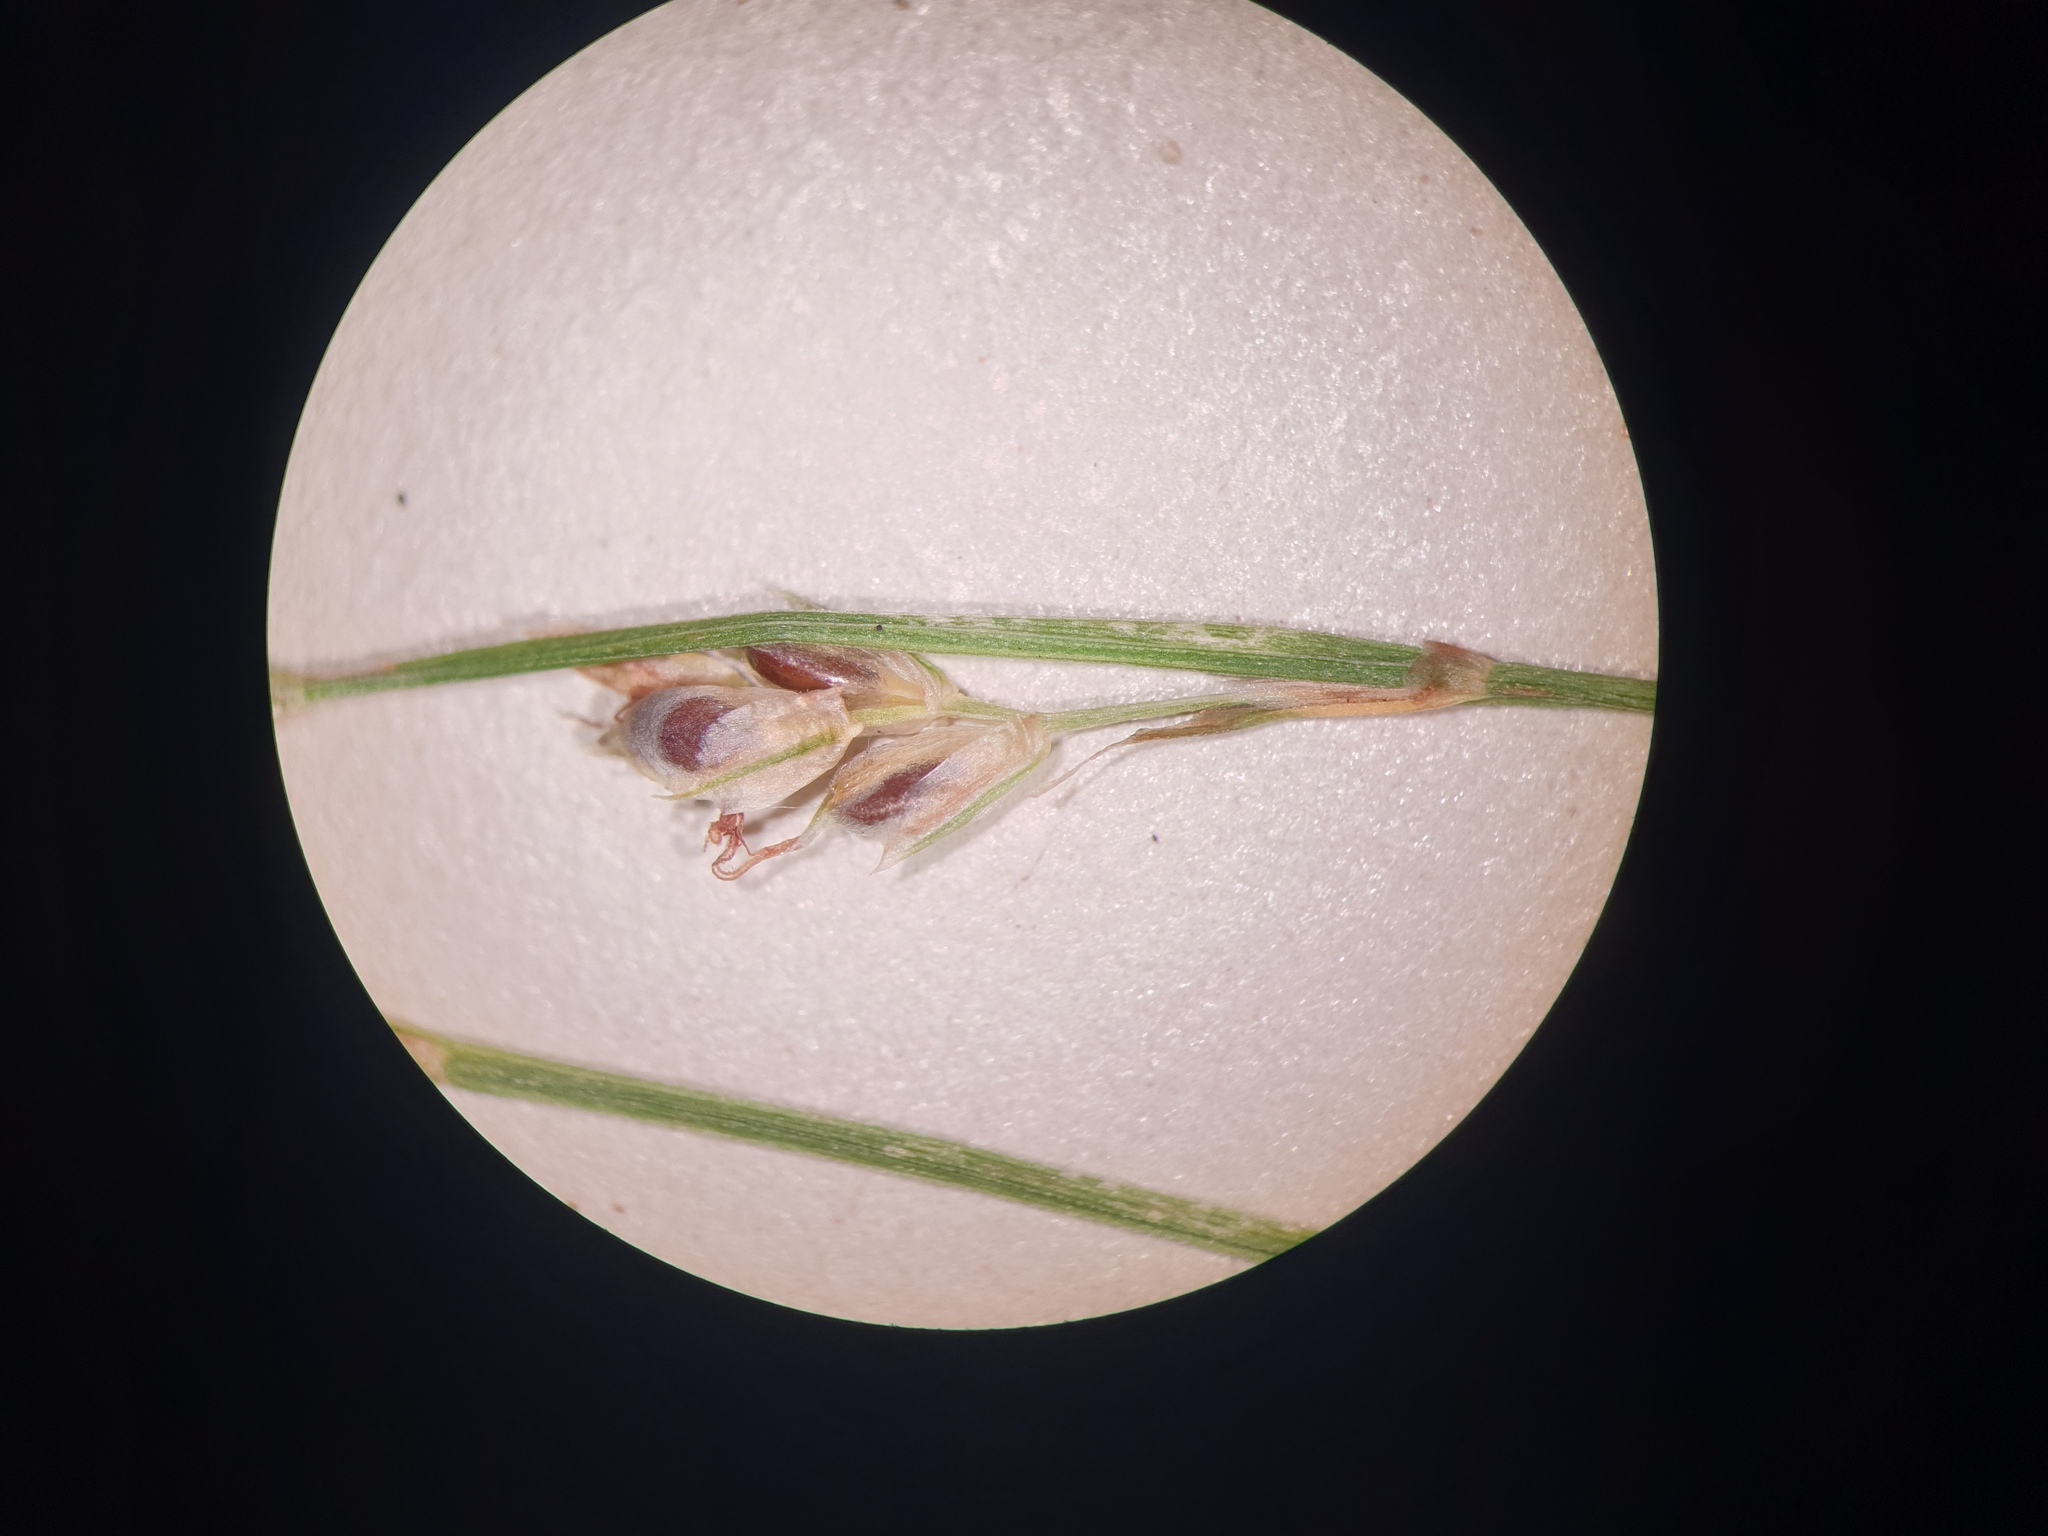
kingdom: Plantae
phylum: Tracheophyta
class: Liliopsida
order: Poales
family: Cyperaceae
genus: Carex
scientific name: Carex novae-angliae
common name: New england sedge
